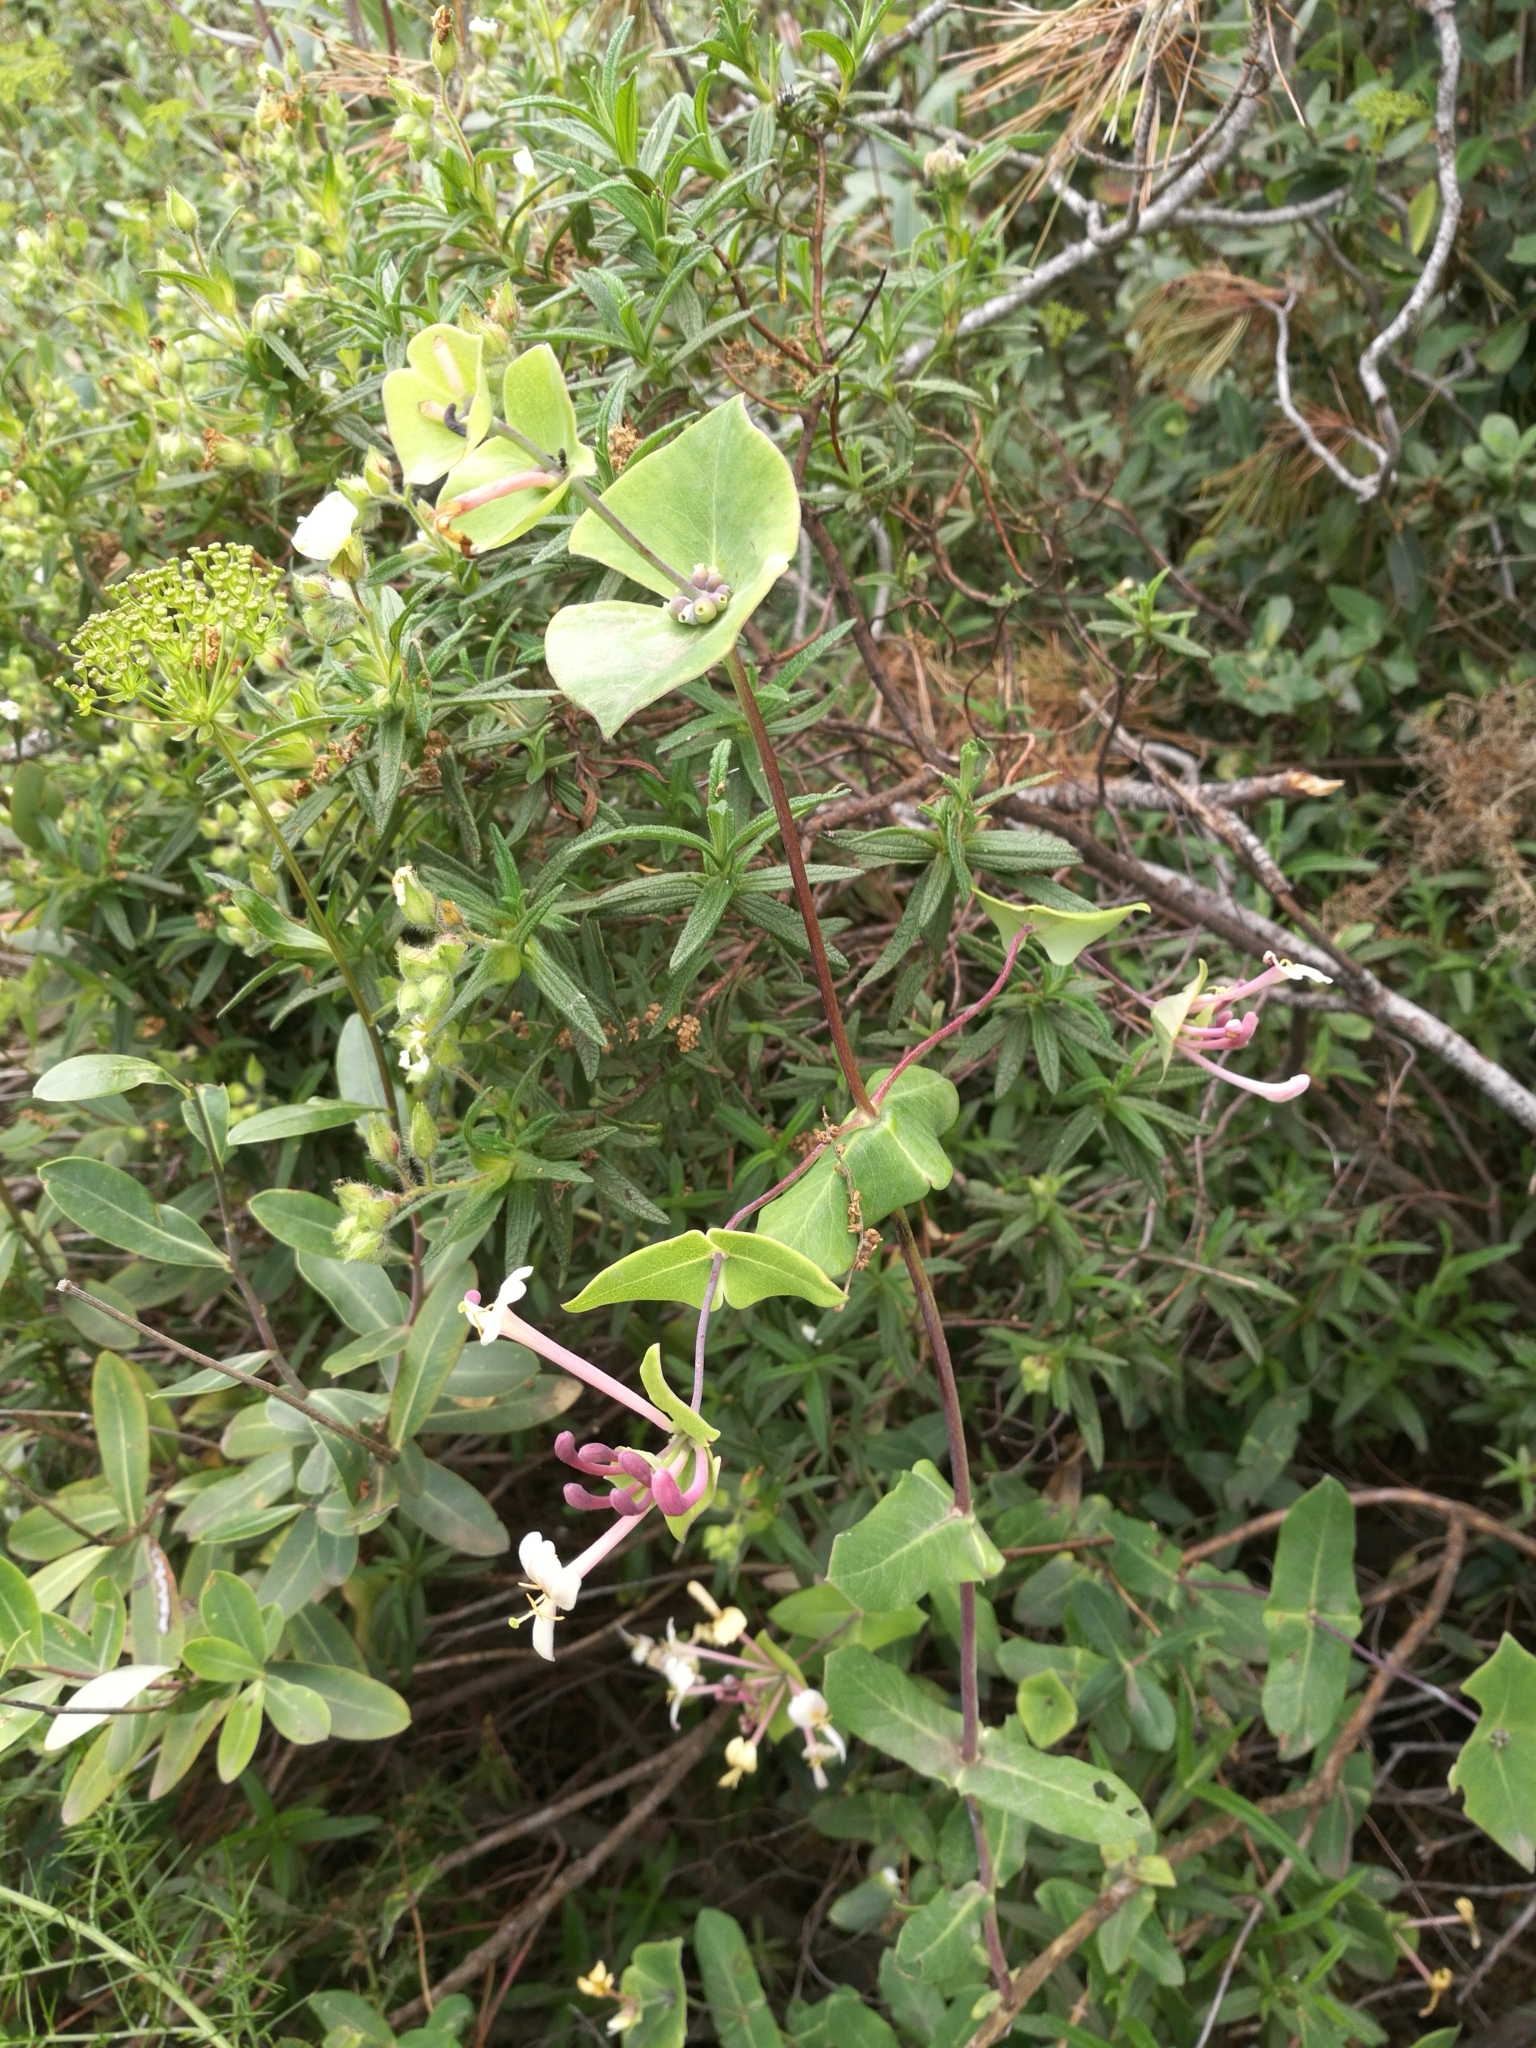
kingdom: Plantae
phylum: Tracheophyta
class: Magnoliopsida
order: Dipsacales
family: Caprifoliaceae
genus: Lonicera
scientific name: Lonicera implexa
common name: Minorca honeysuckle
